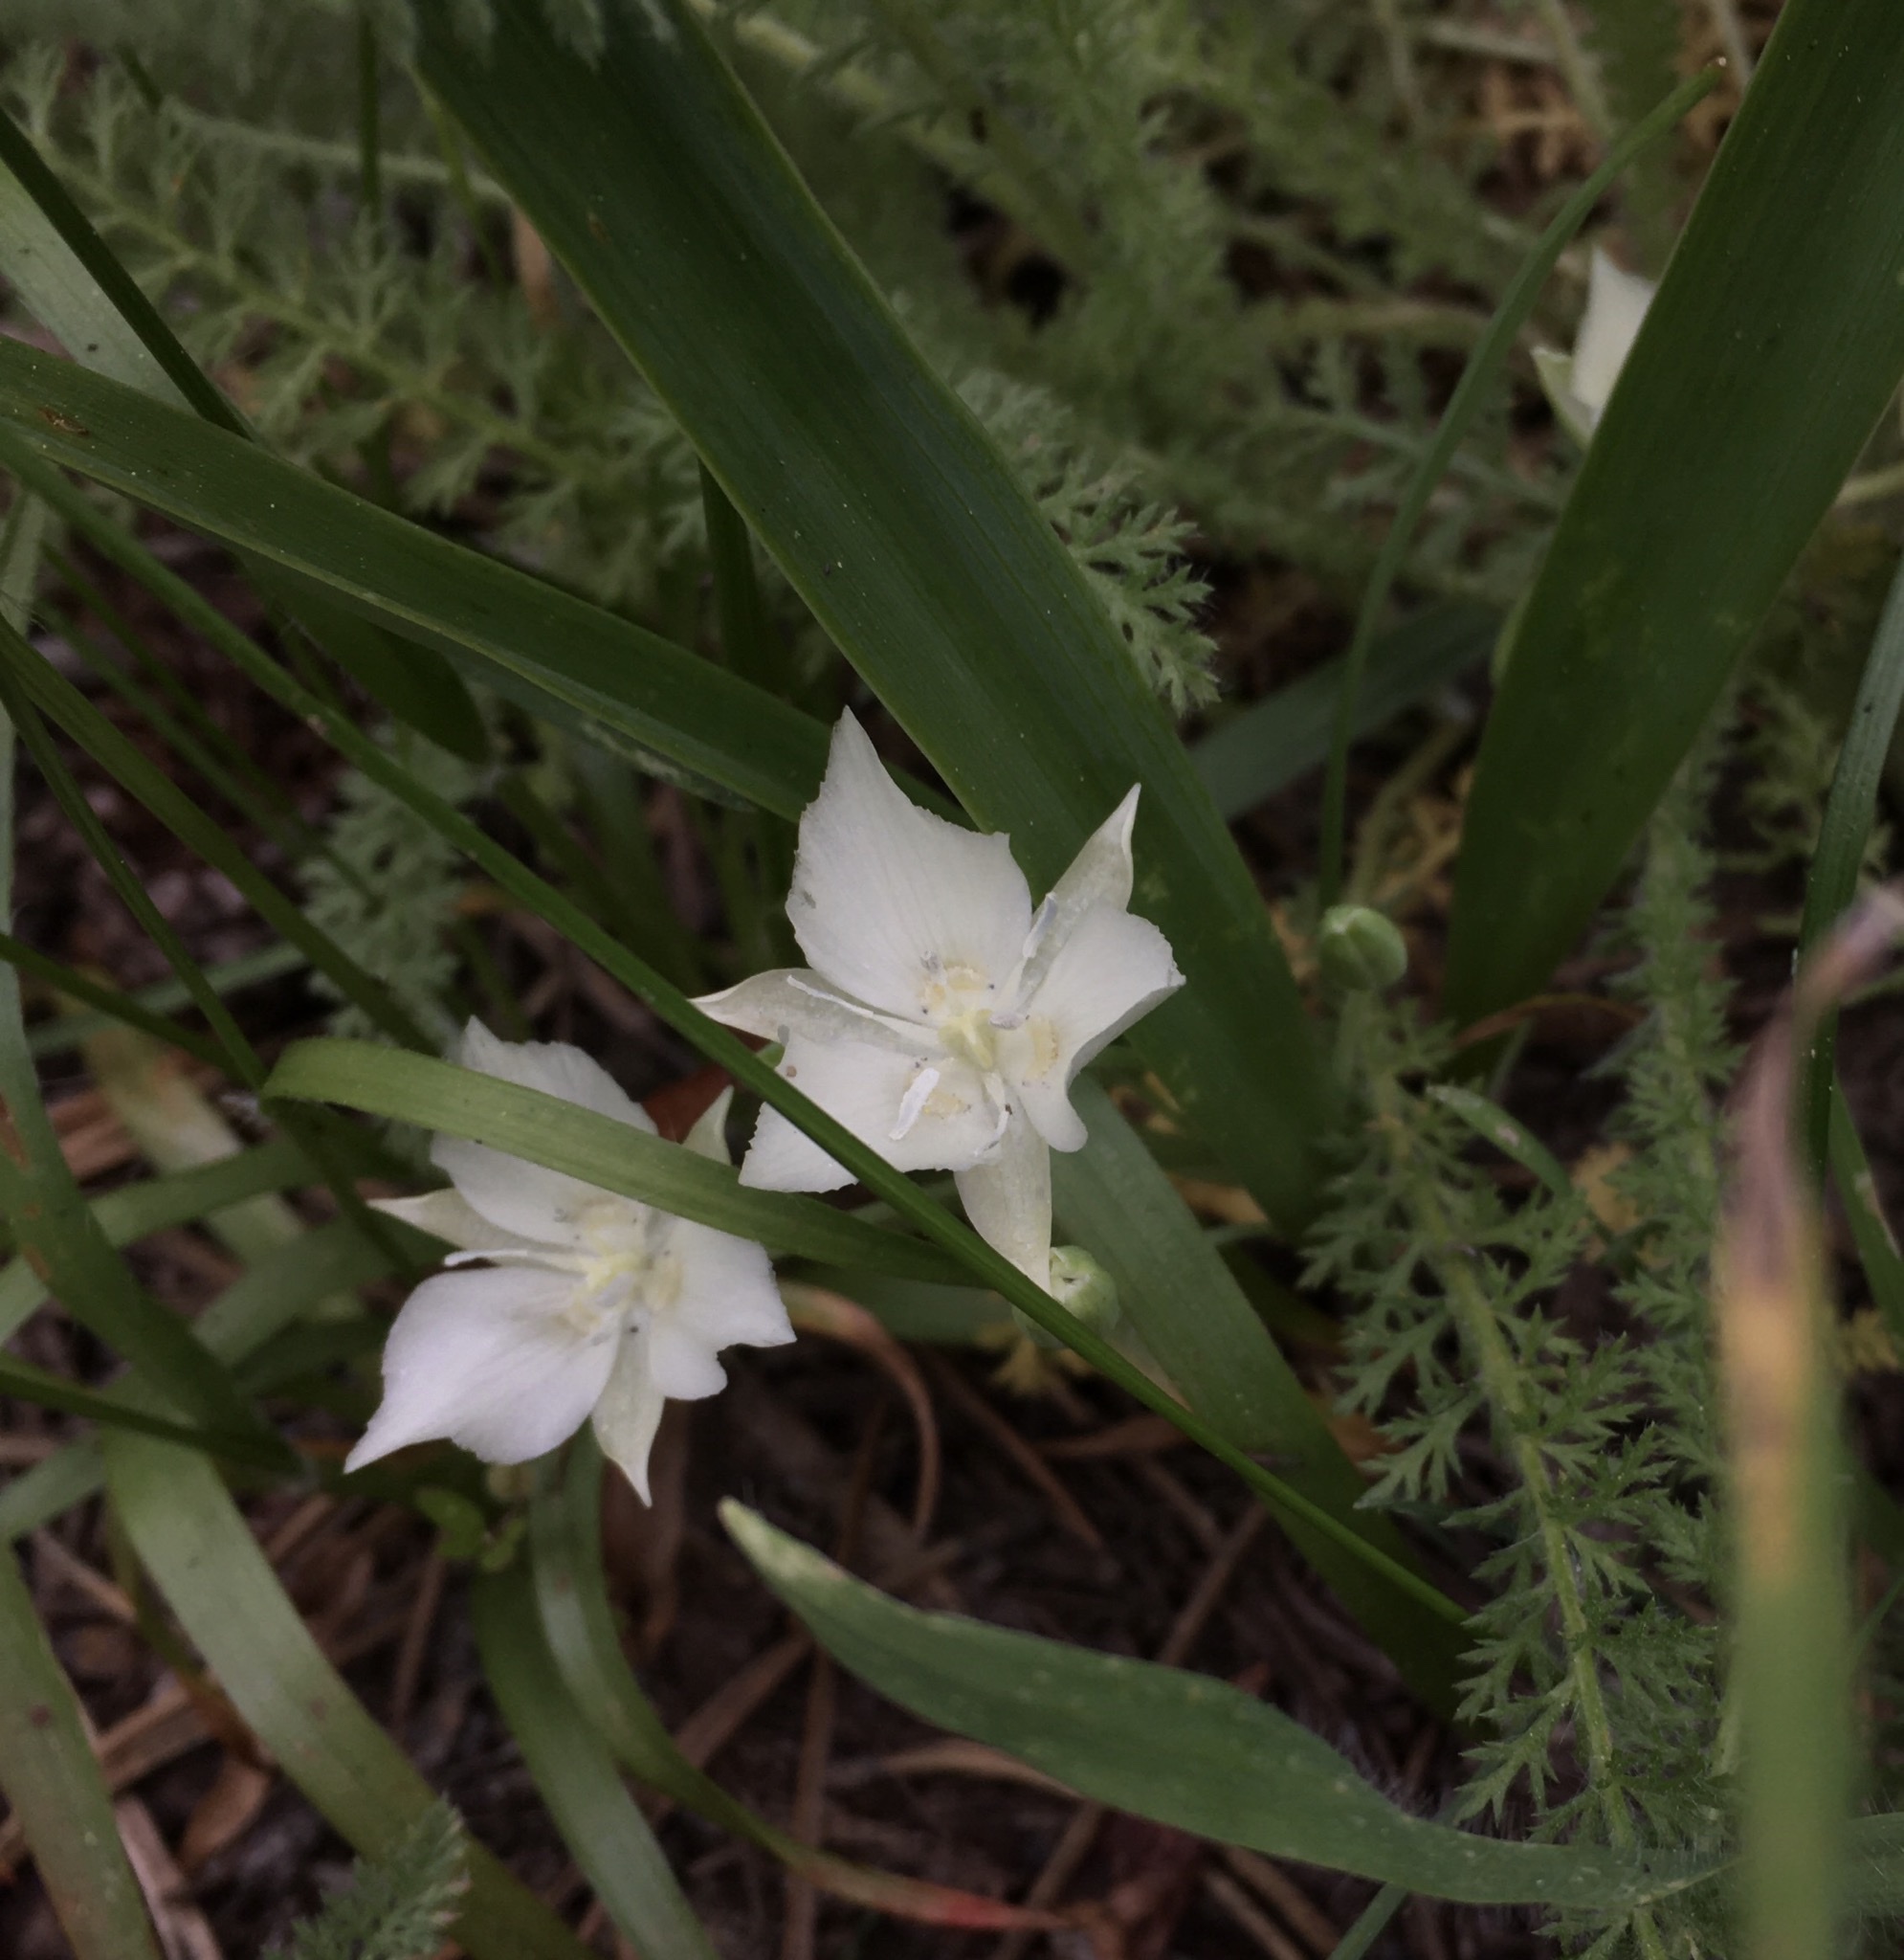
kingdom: Plantae
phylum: Tracheophyta
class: Liliopsida
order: Liliales
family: Liliaceae
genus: Calochortus
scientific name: Calochortus minimus
